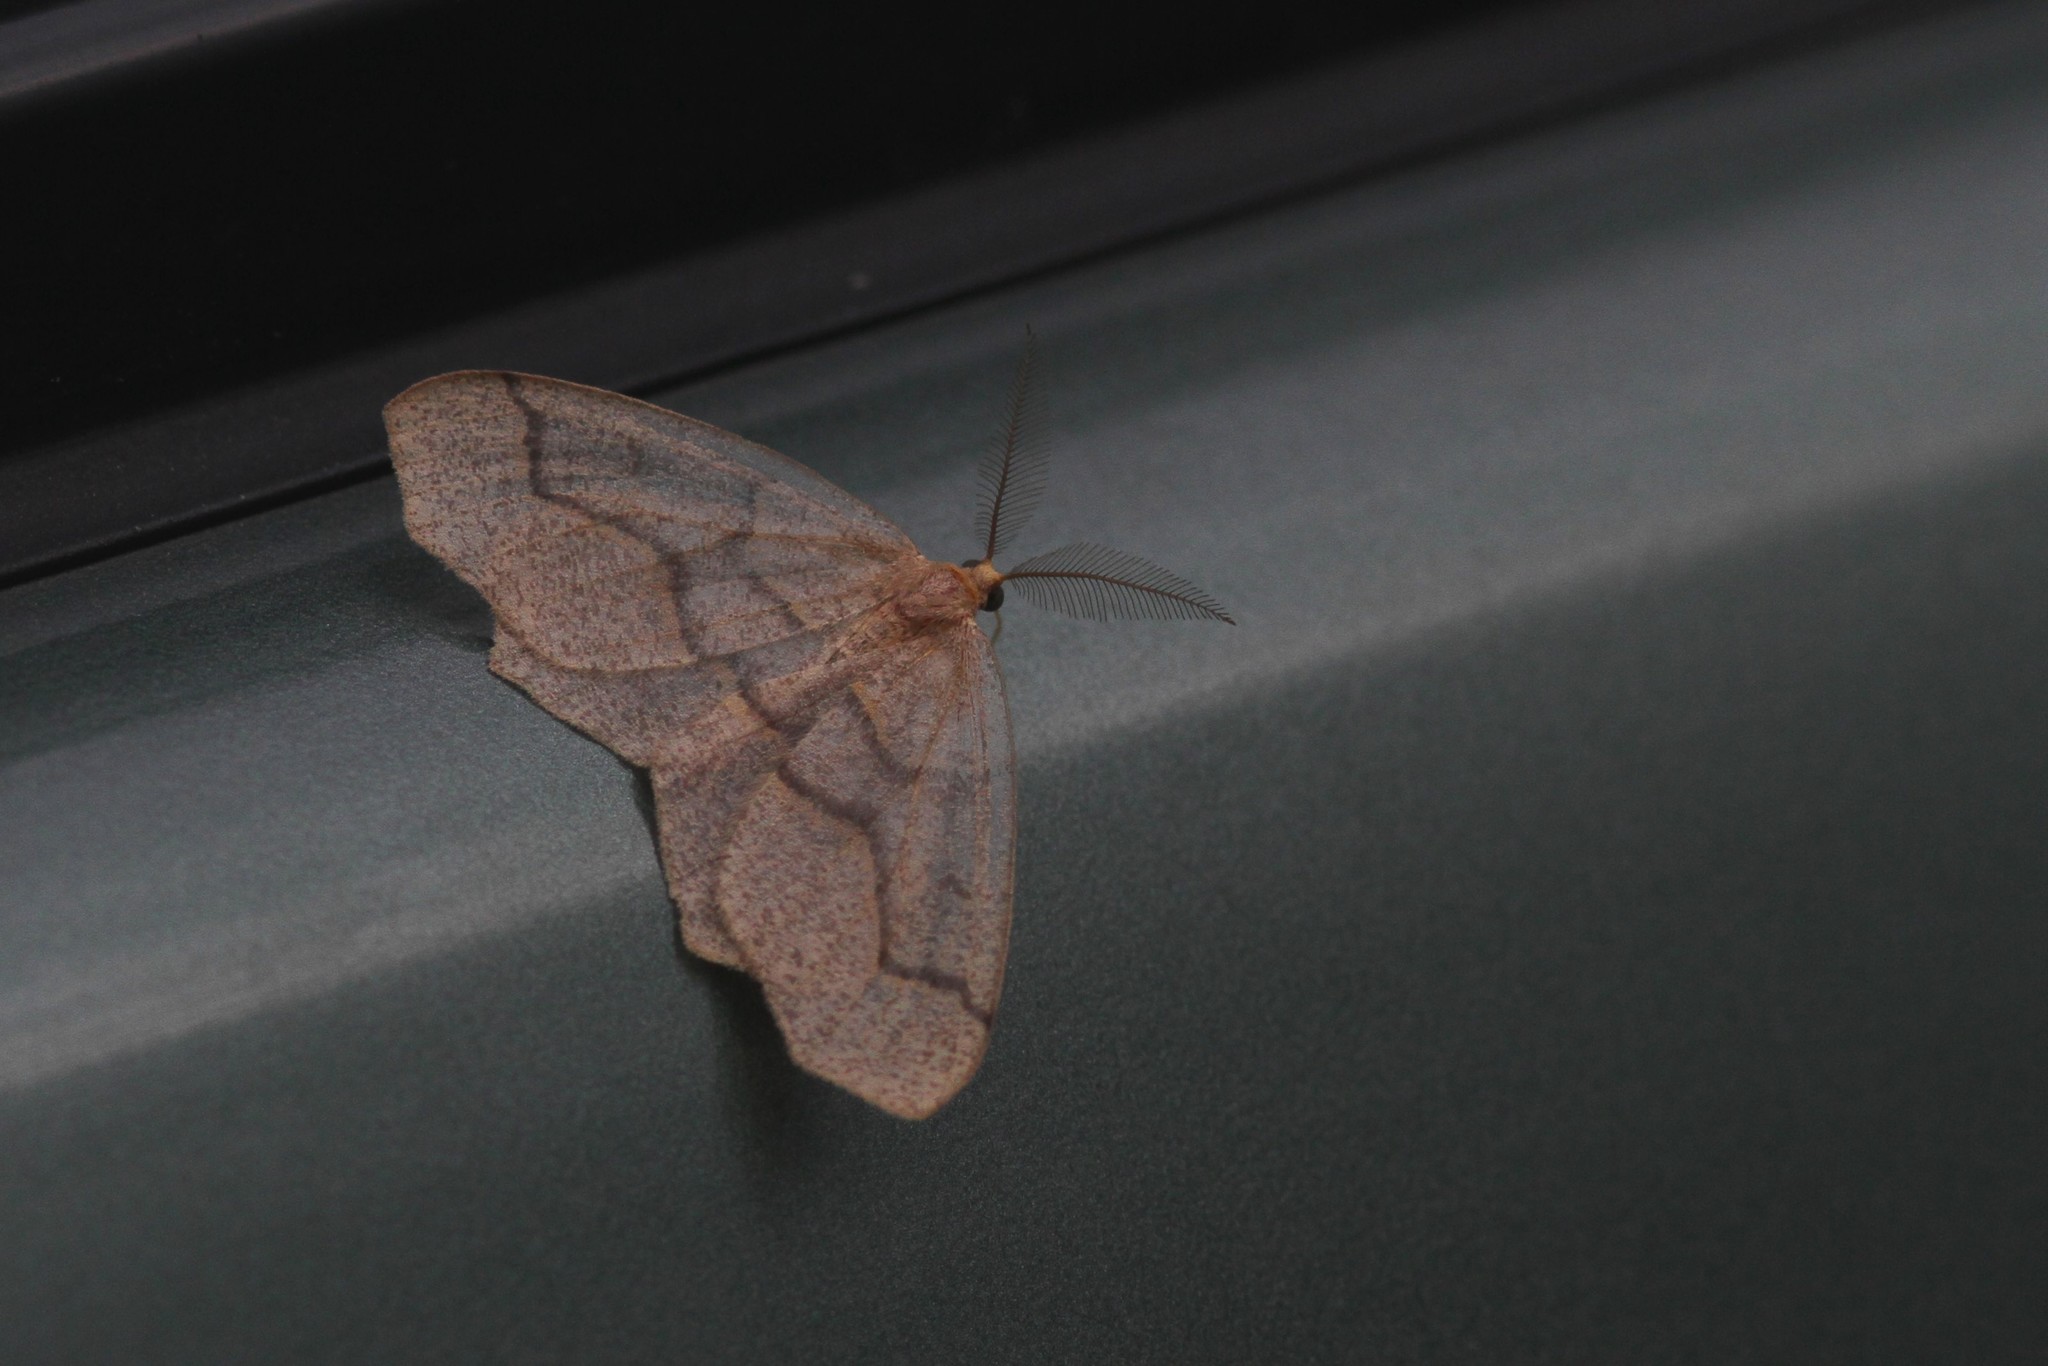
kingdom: Animalia
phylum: Arthropoda
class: Insecta
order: Lepidoptera
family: Geometridae
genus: Lambdina
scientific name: Lambdina fiscellaria
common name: Hemlock looper
